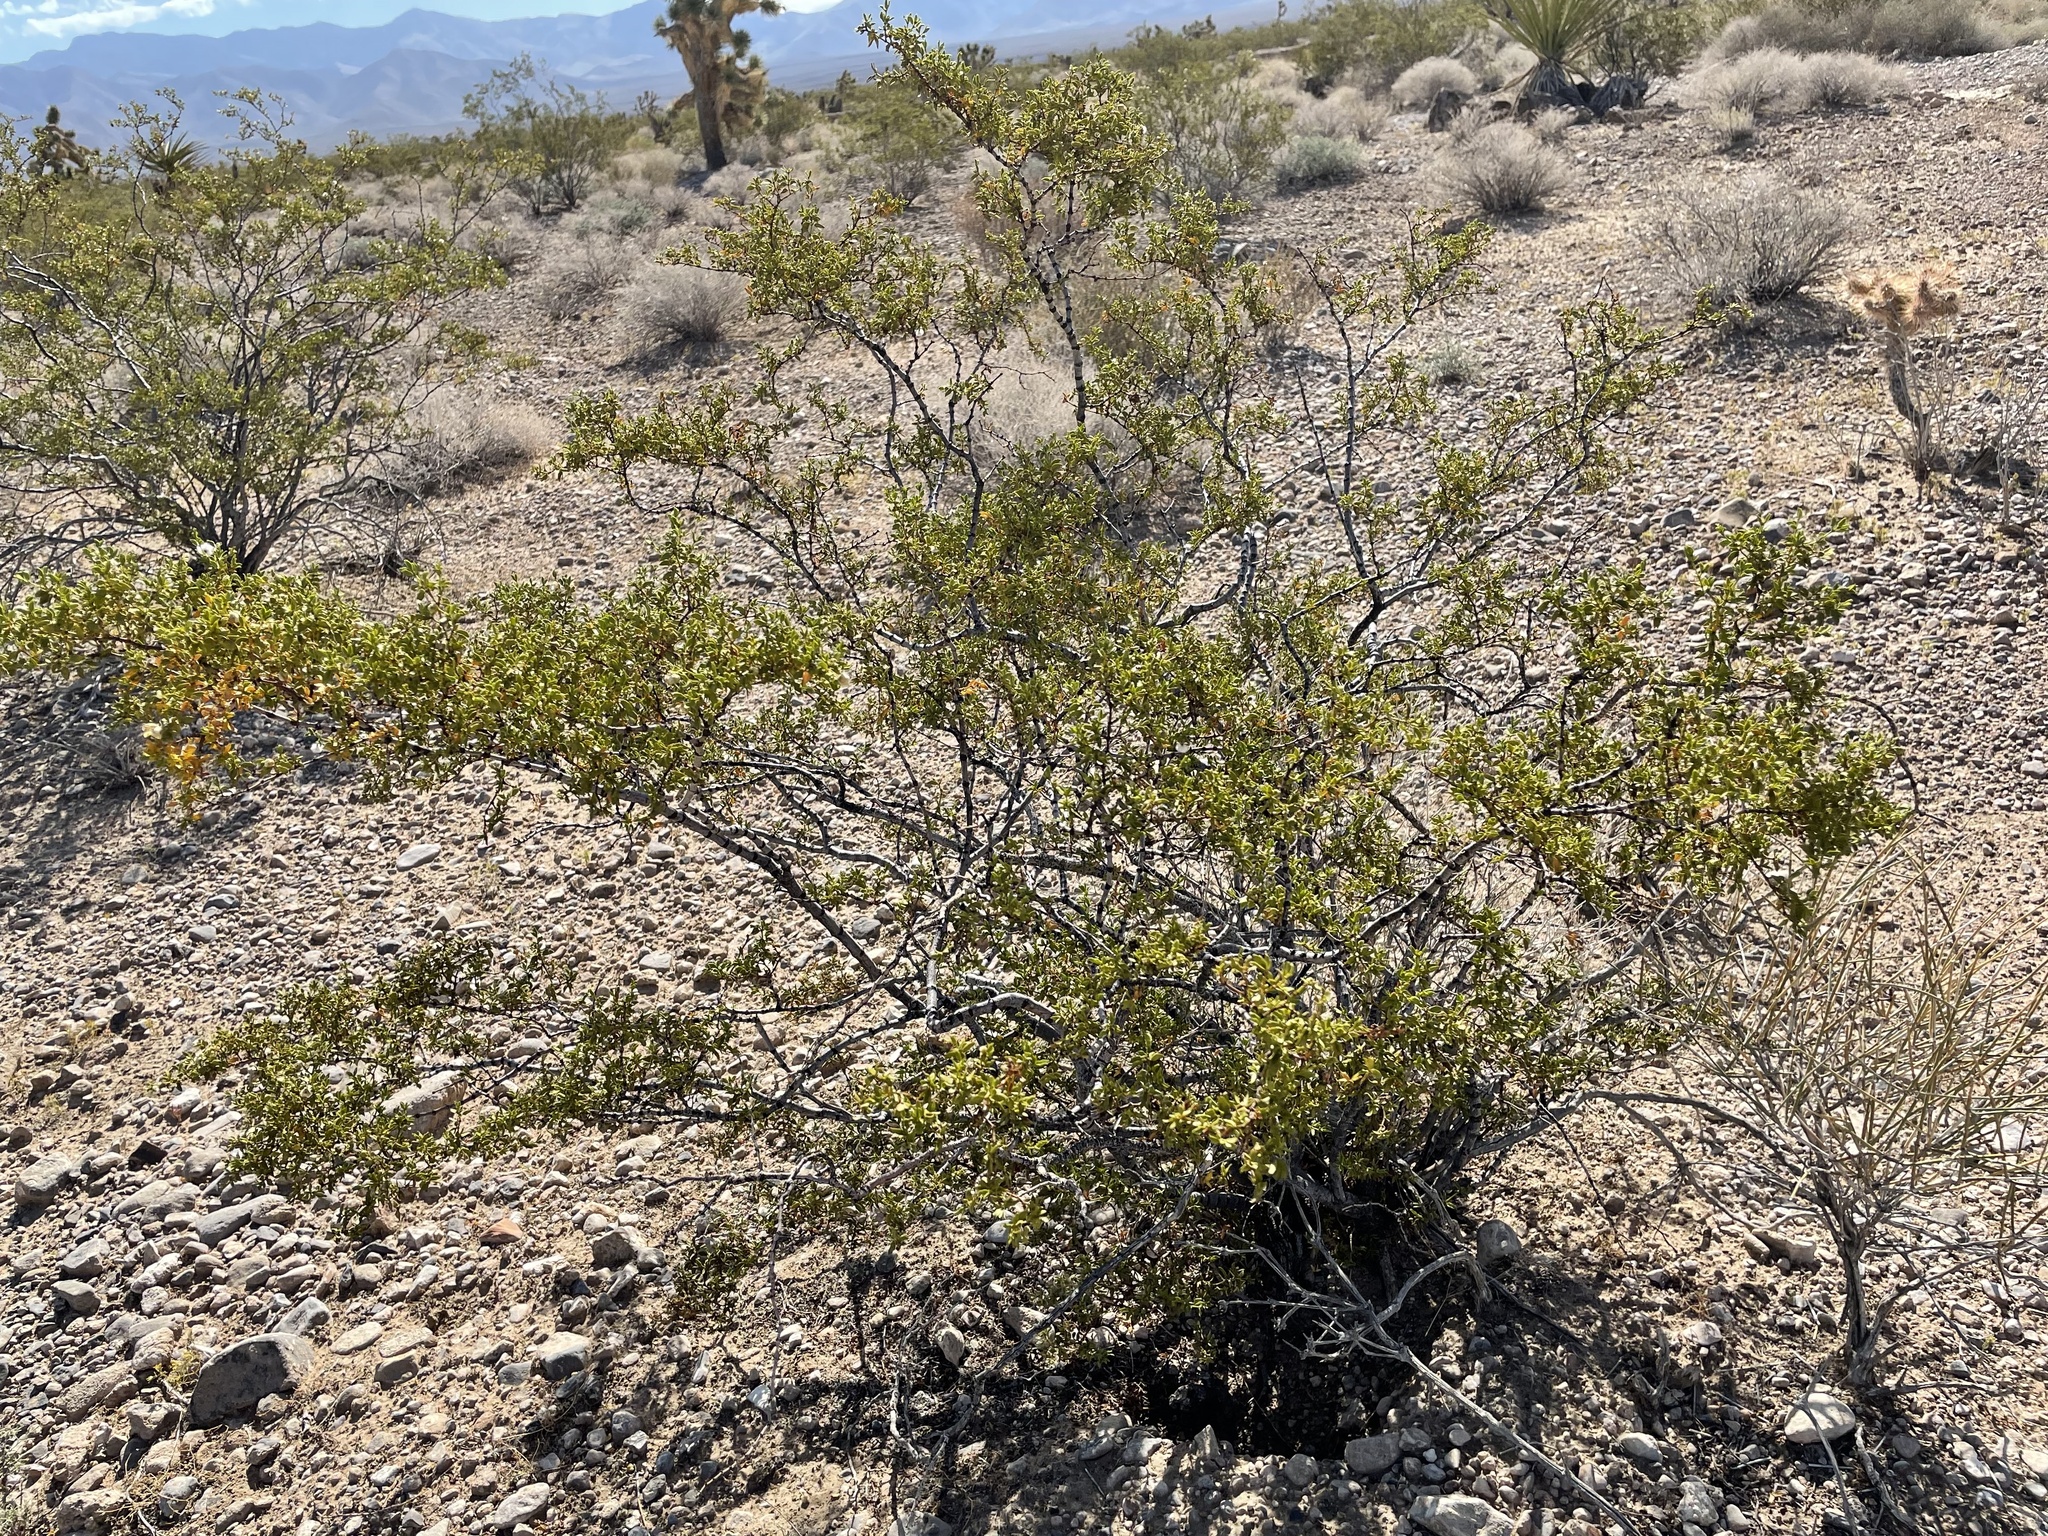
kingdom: Plantae
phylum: Tracheophyta
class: Magnoliopsida
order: Zygophyllales
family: Zygophyllaceae
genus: Larrea
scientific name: Larrea tridentata
